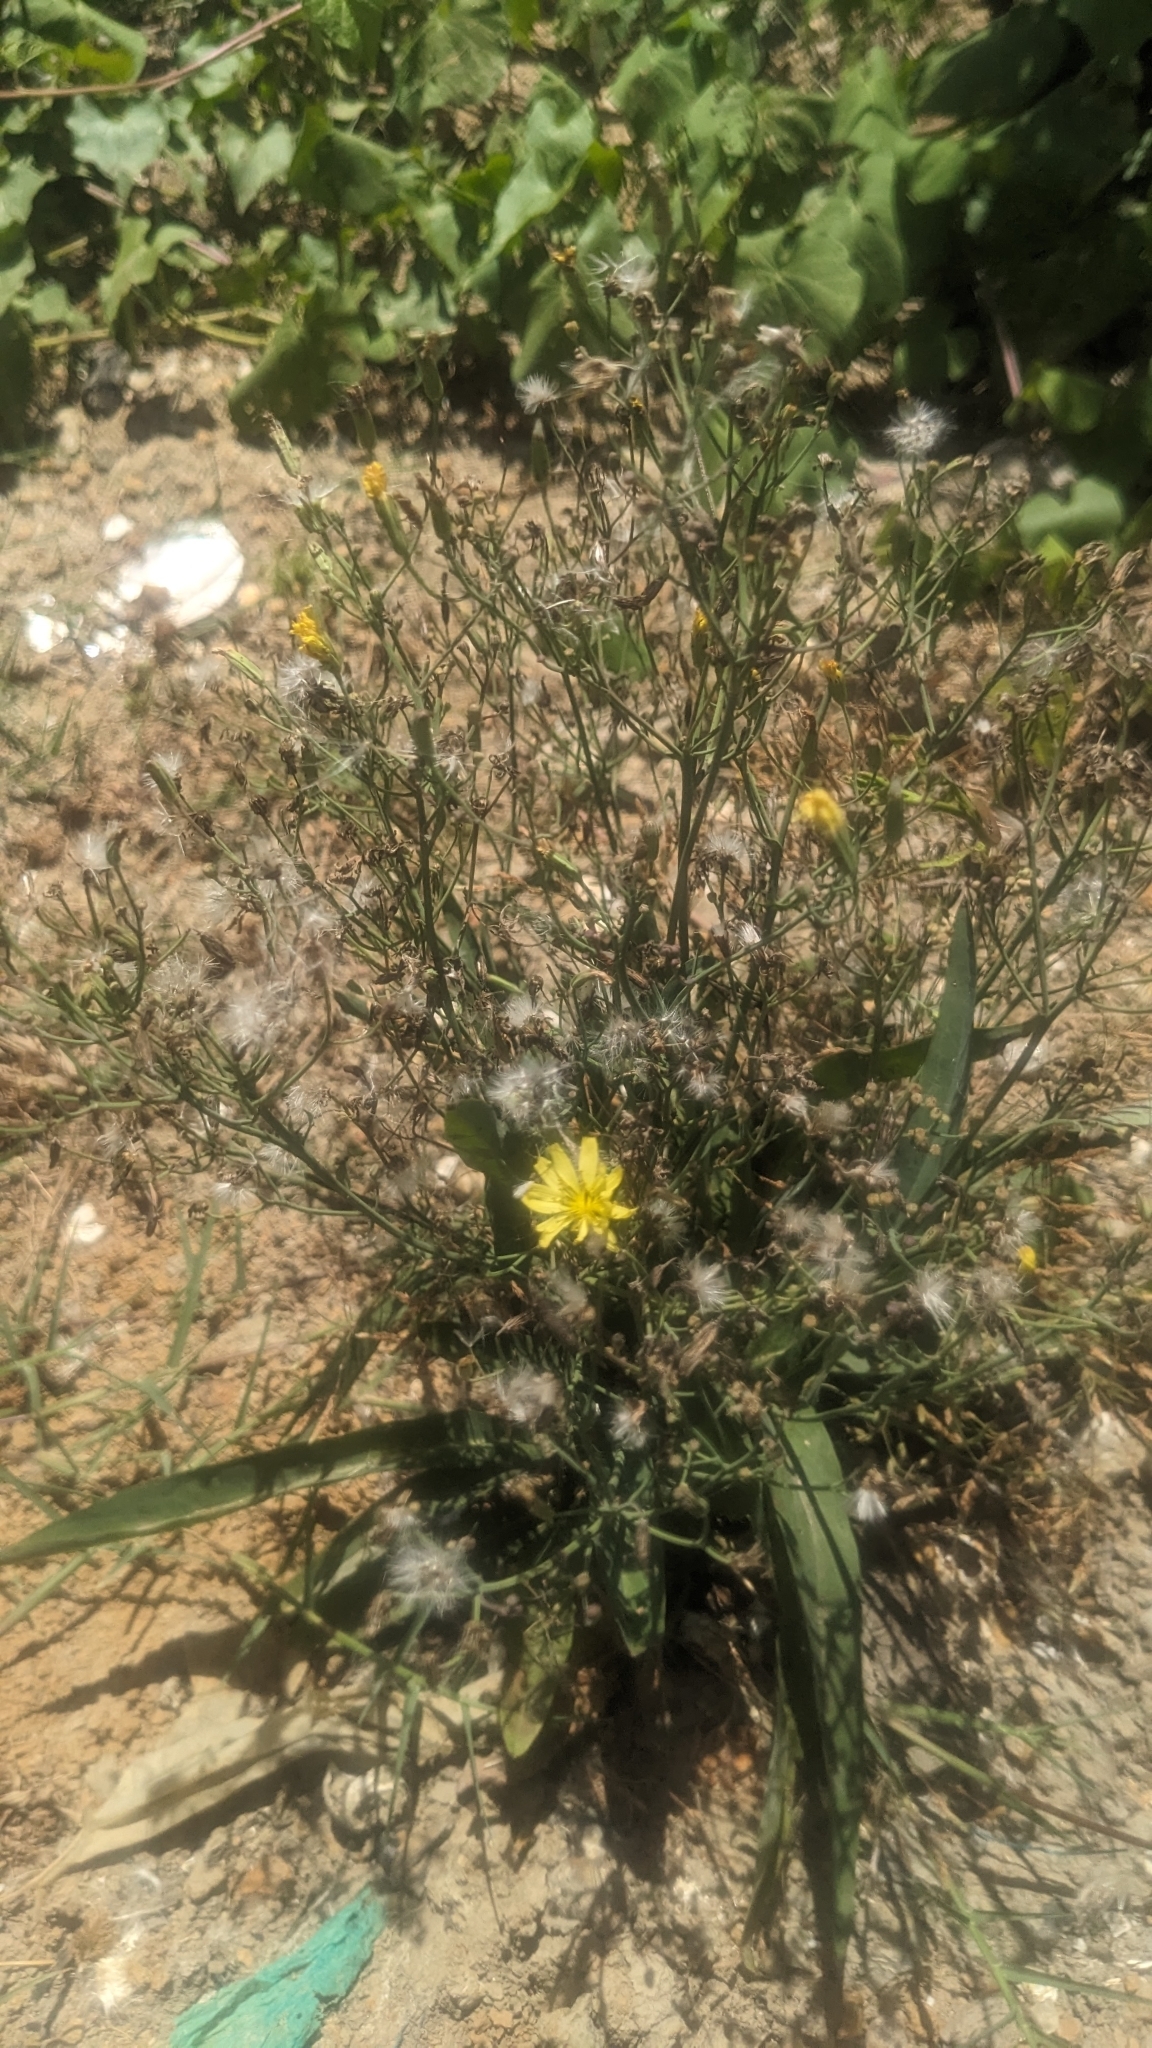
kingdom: Plantae
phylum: Tracheophyta
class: Magnoliopsida
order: Asterales
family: Asteraceae
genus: Ixeris
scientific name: Ixeris chinensis
